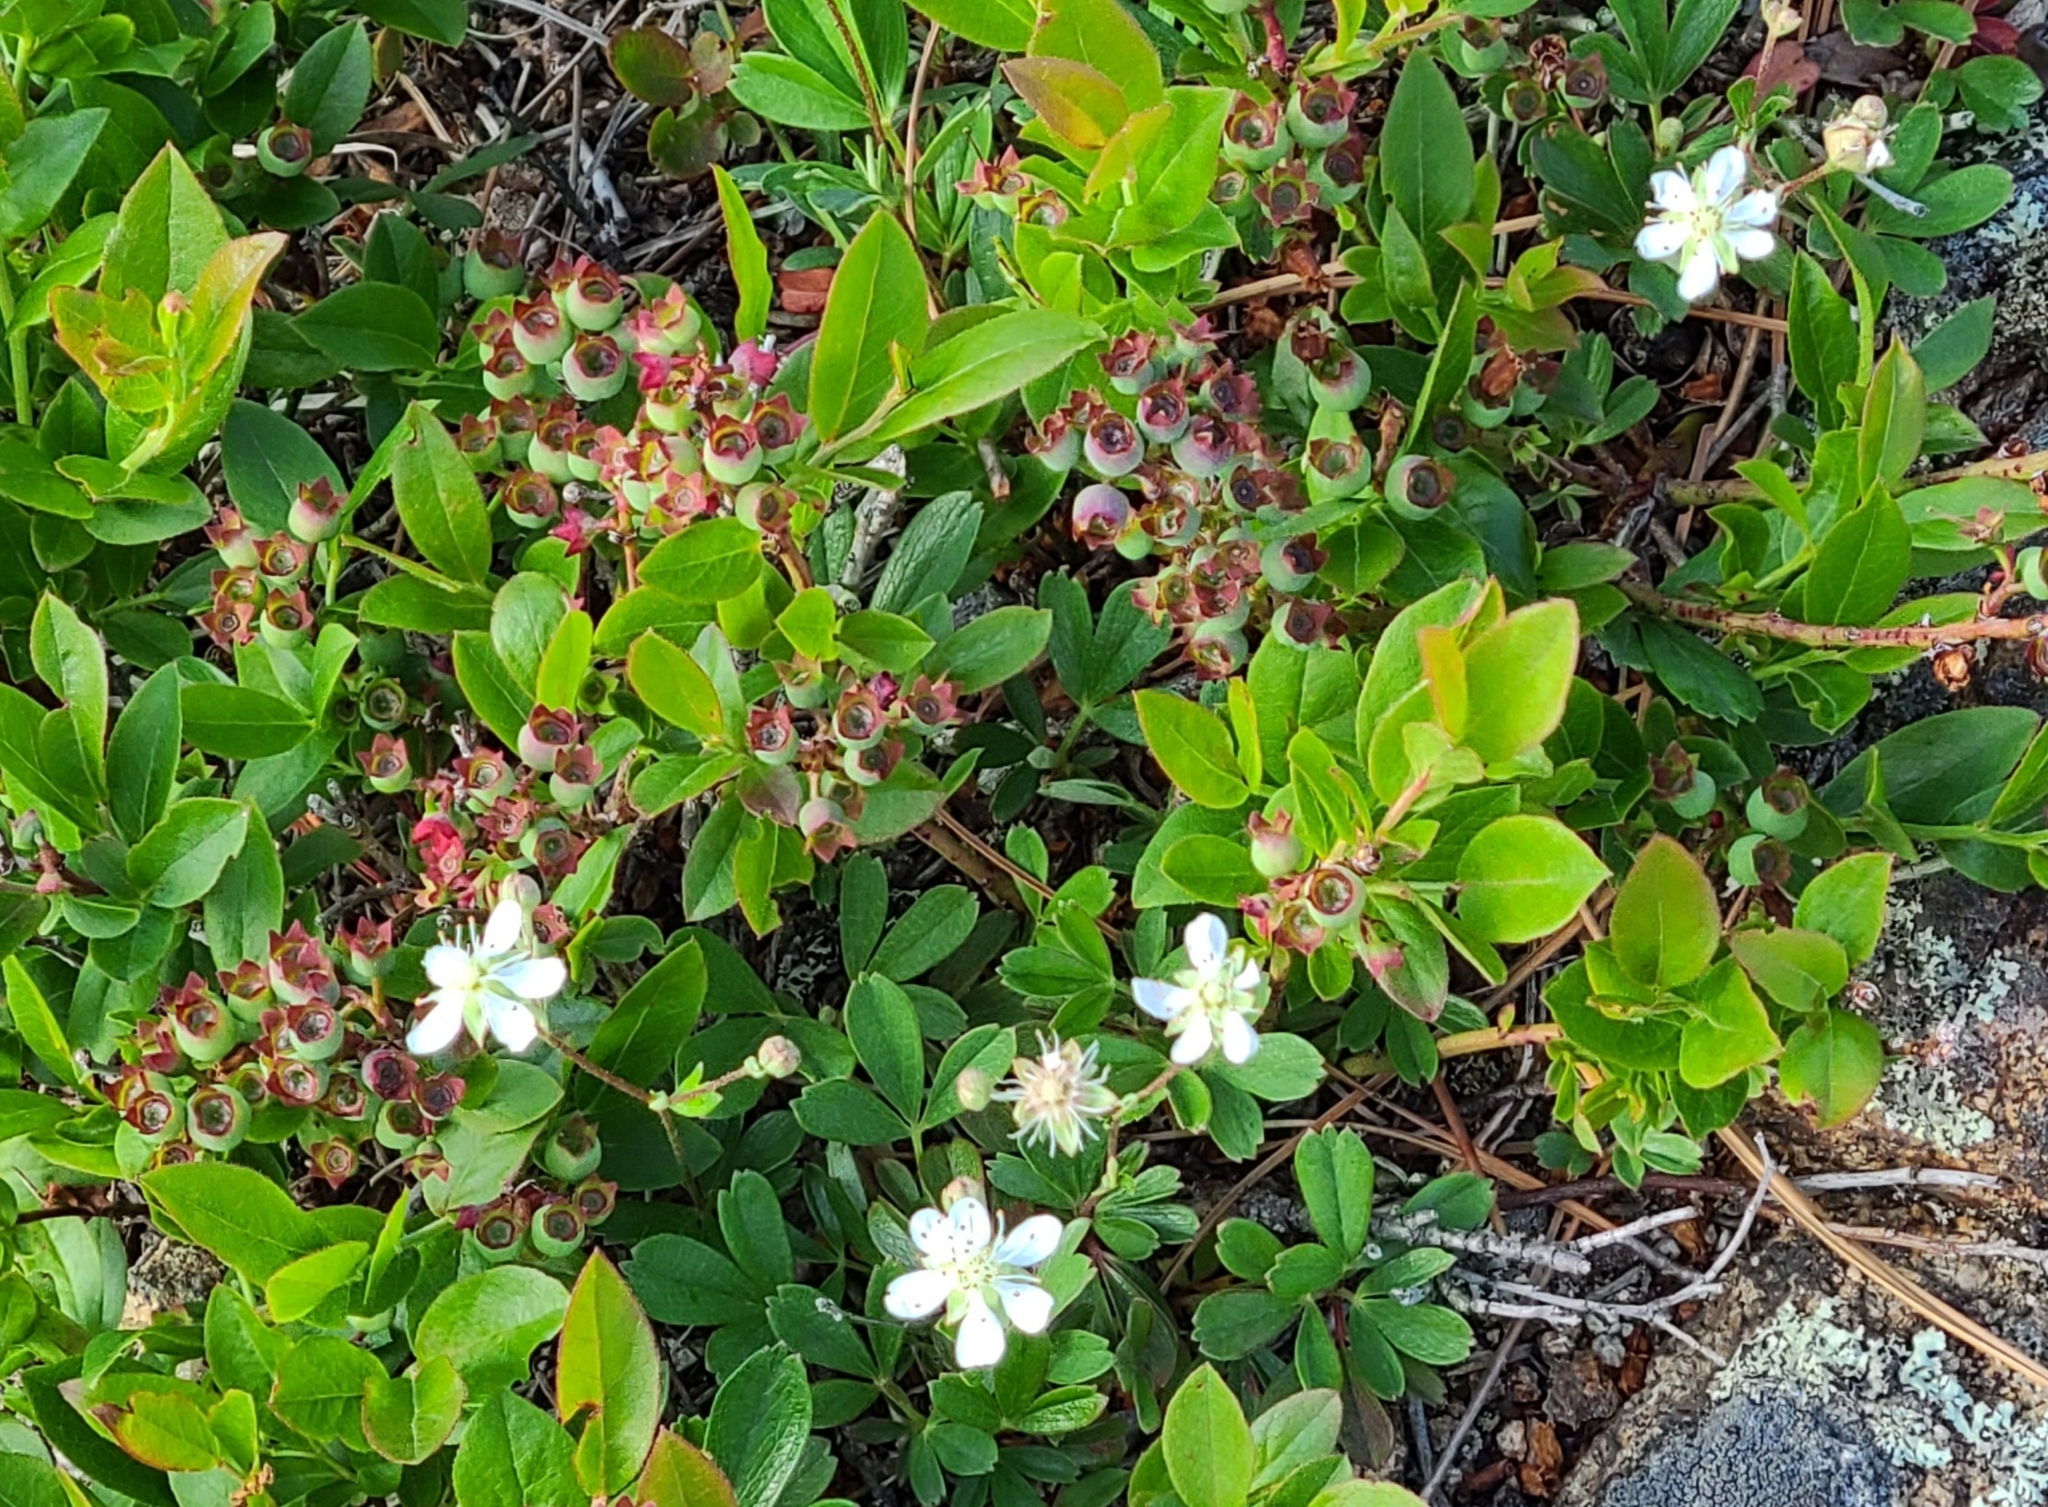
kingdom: Plantae
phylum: Tracheophyta
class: Magnoliopsida
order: Rosales
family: Rosaceae
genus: Sibbaldia
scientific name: Sibbaldia tridentata
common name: Three-toothed cinquefoil
